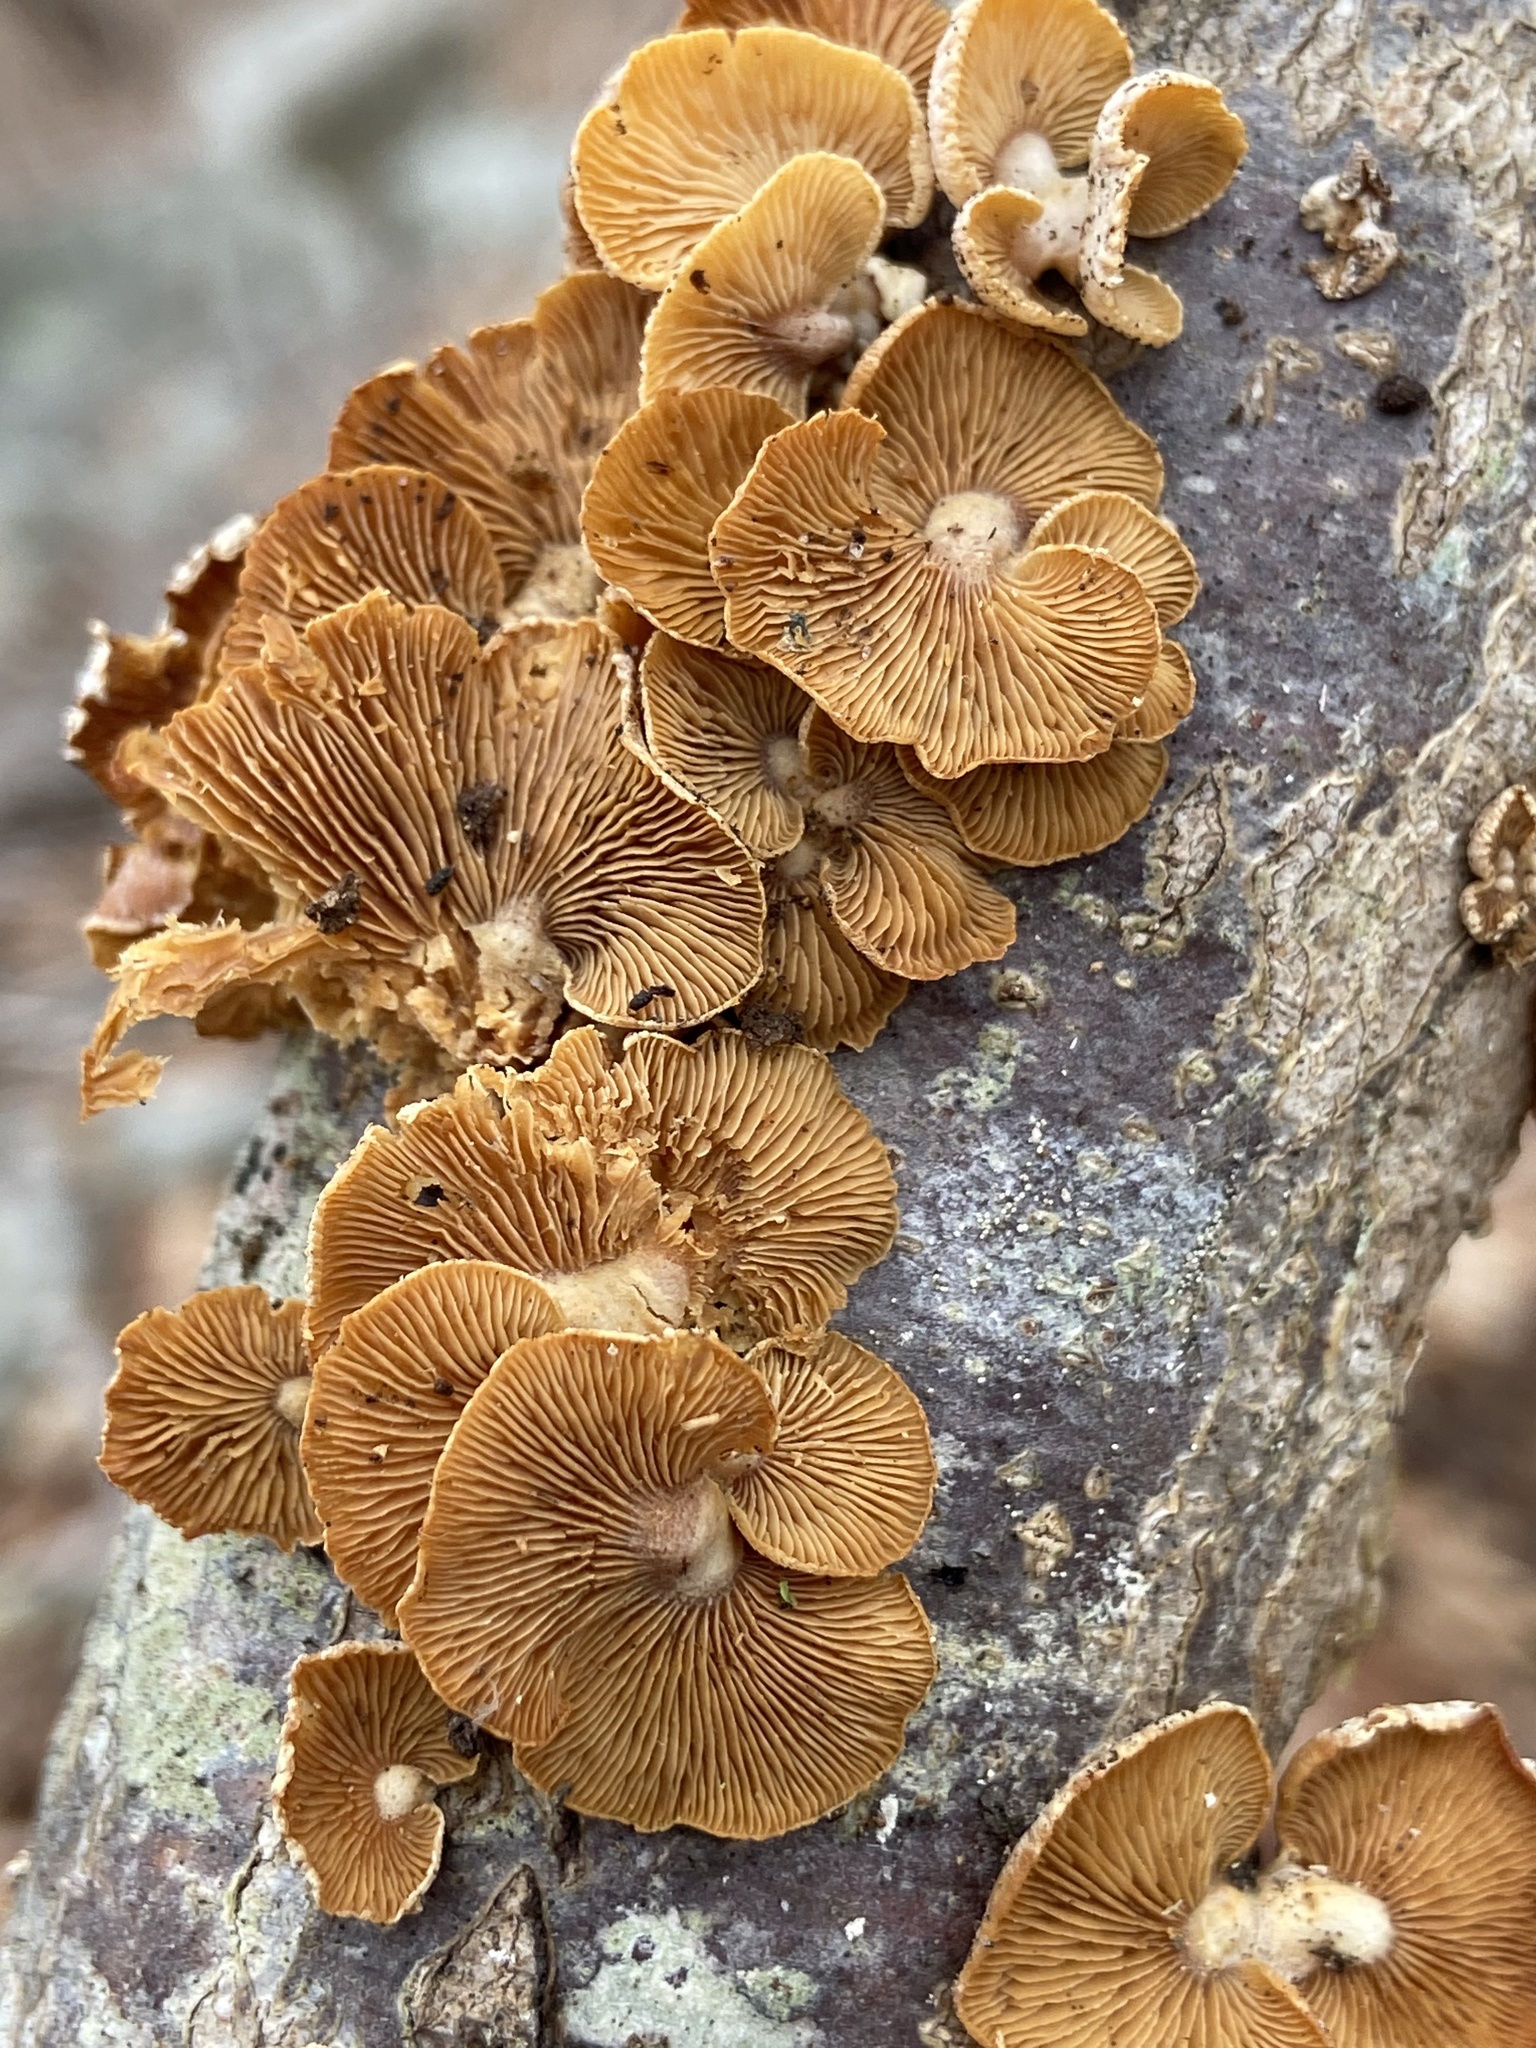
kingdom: Fungi
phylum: Basidiomycota
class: Agaricomycetes
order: Agaricales
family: Mycenaceae
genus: Panellus
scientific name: Panellus stipticus
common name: Bitter oysterling
